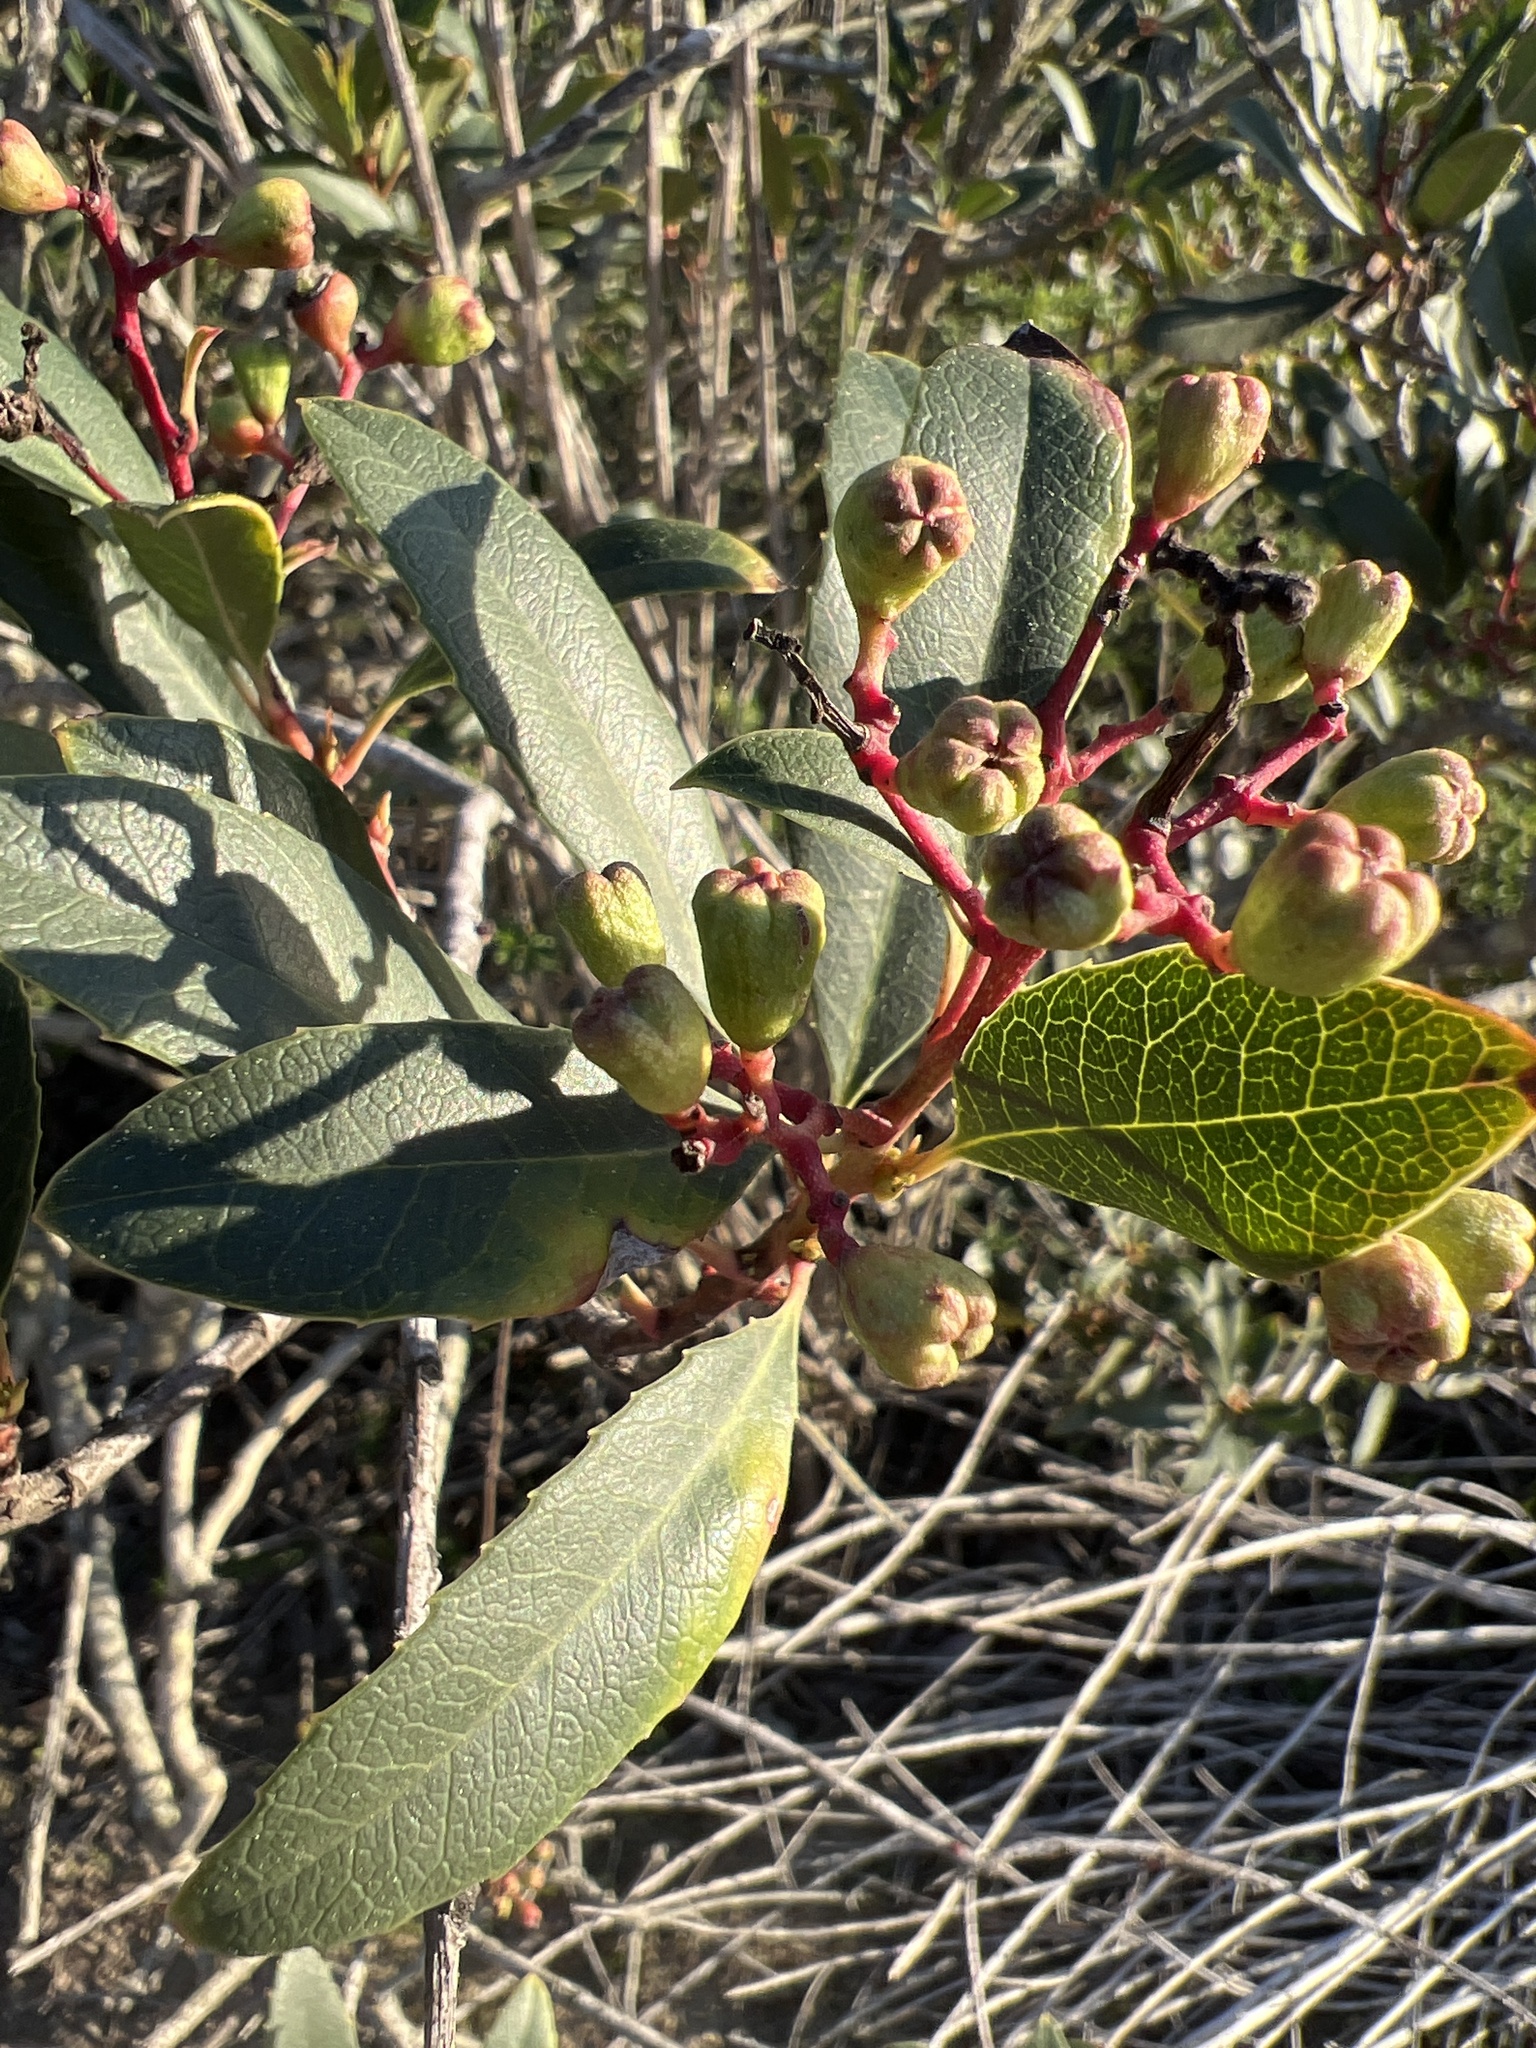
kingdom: Plantae
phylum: Tracheophyta
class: Magnoliopsida
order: Rosales
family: Rosaceae
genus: Heteromeles
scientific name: Heteromeles arbutifolia
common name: California-holly
